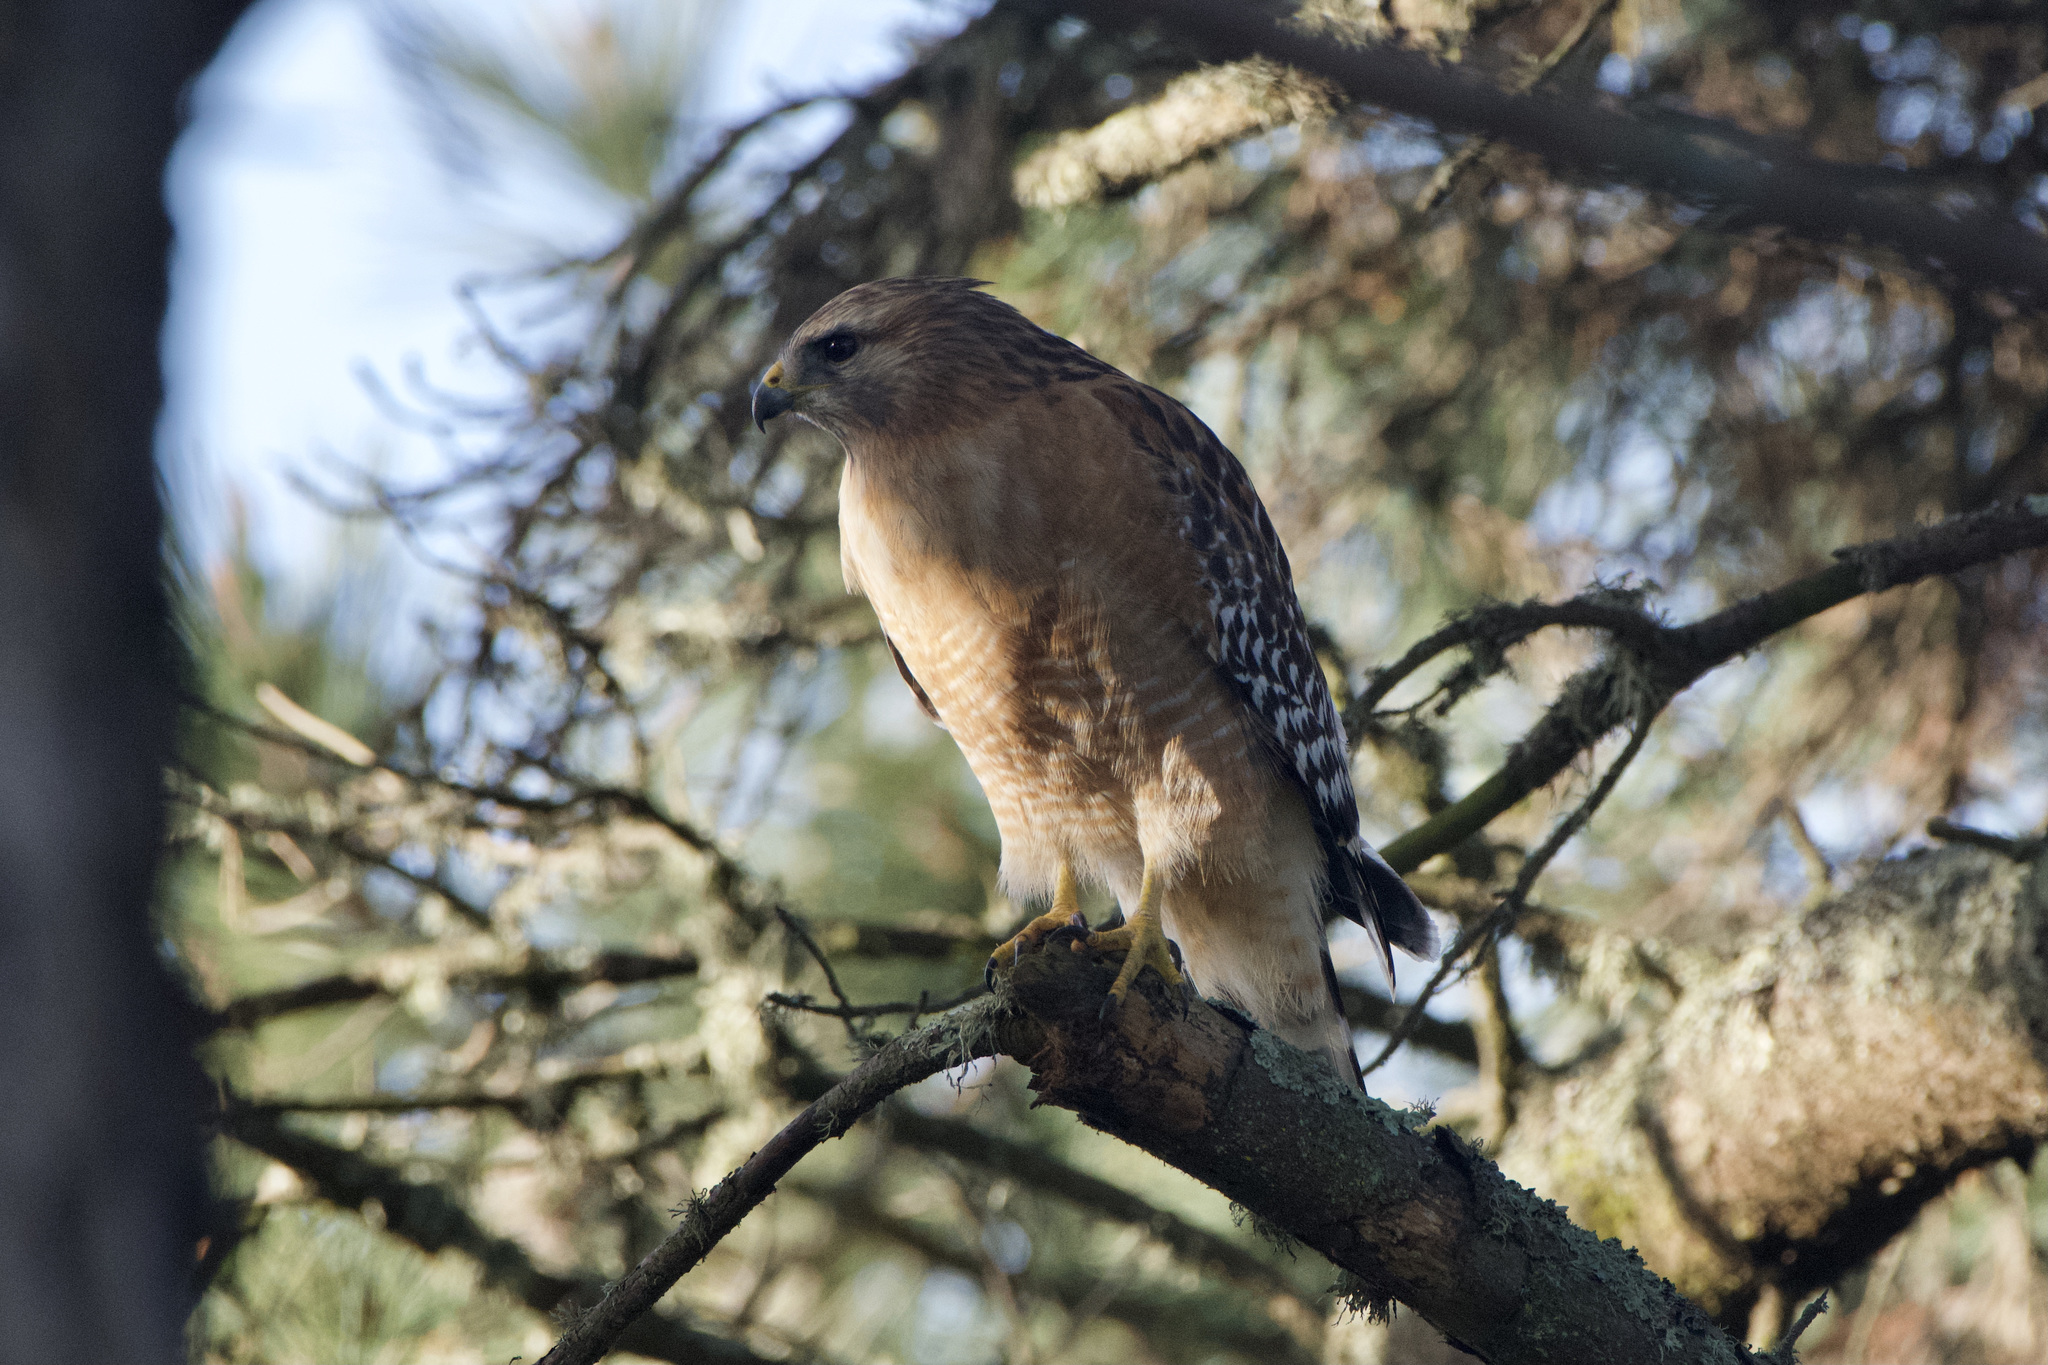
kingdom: Animalia
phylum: Chordata
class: Aves
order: Accipitriformes
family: Accipitridae
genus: Buteo
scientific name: Buteo lineatus
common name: Red-shouldered hawk
